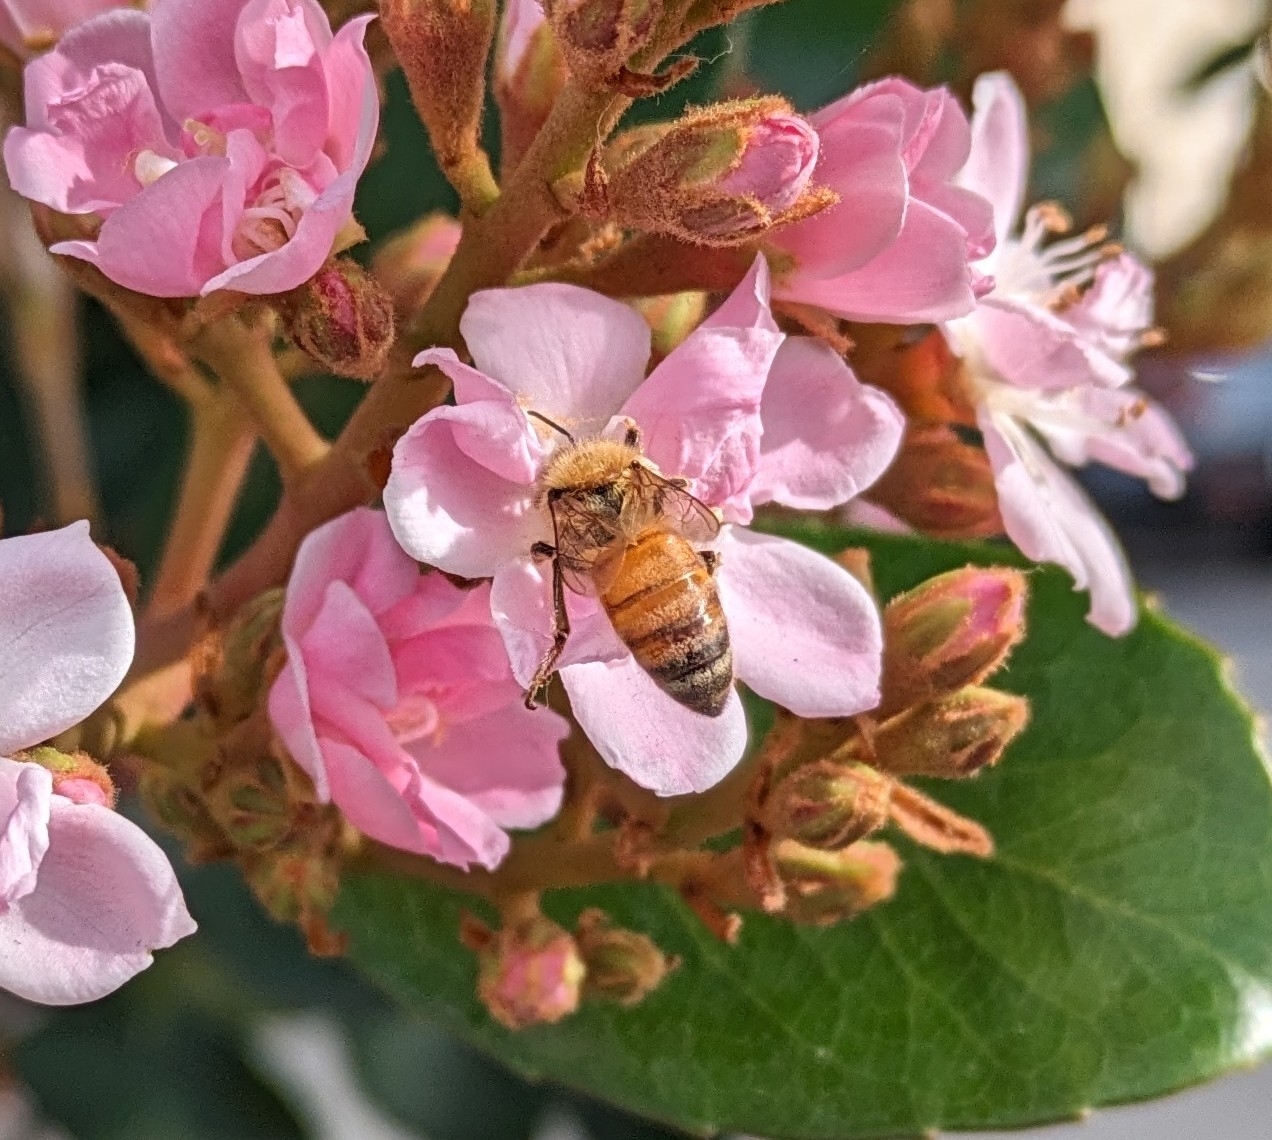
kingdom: Animalia
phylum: Arthropoda
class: Insecta
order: Hymenoptera
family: Apidae
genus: Apis
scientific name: Apis mellifera
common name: Honey bee
